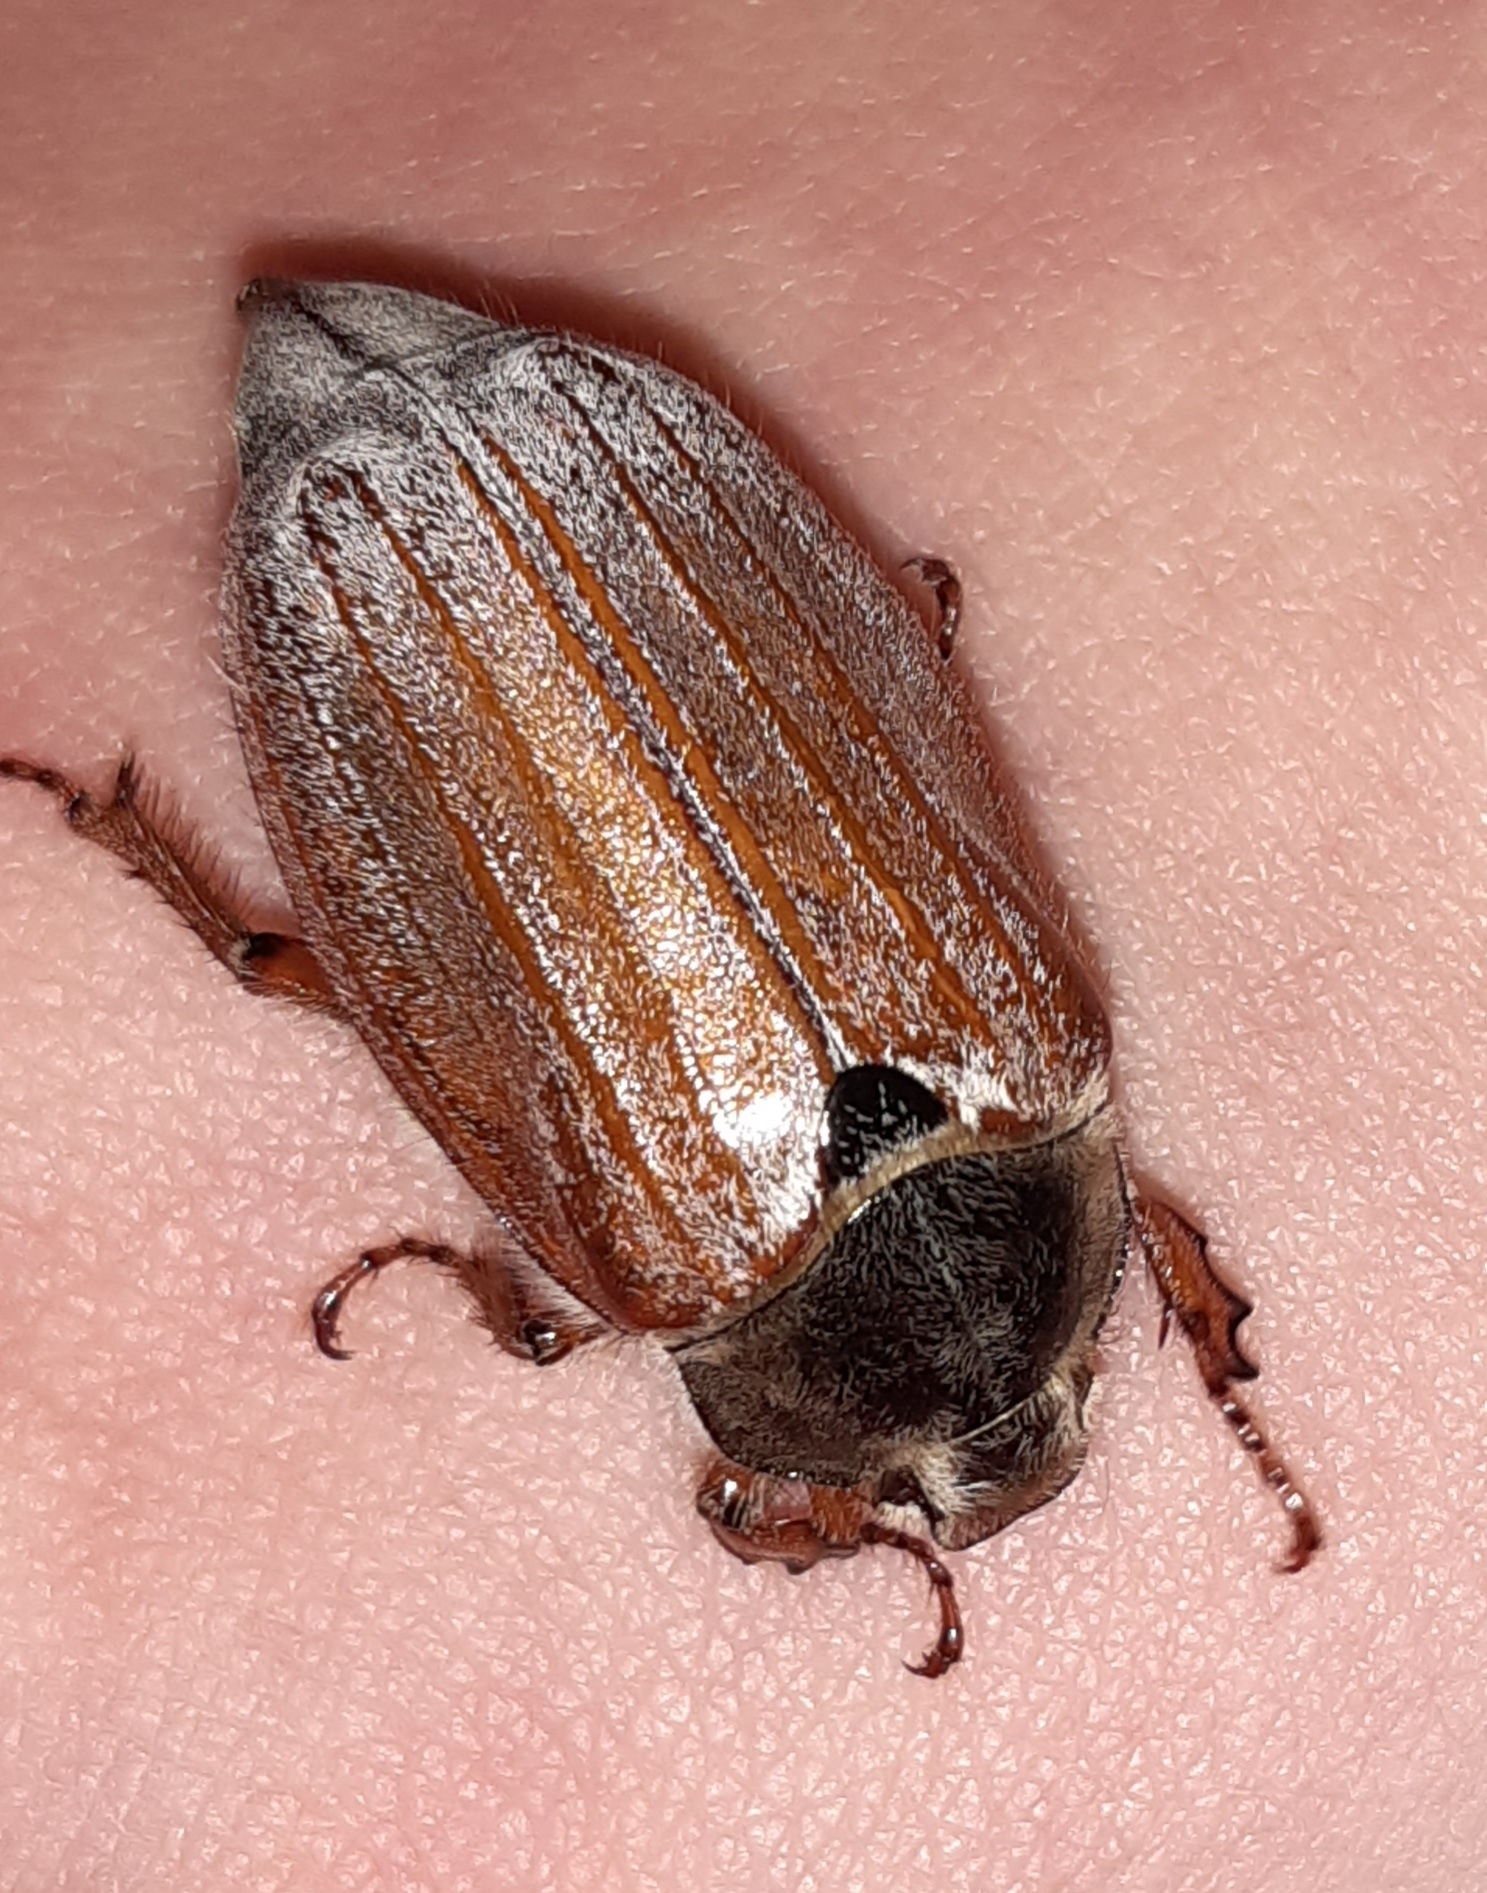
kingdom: Animalia
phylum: Arthropoda
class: Insecta
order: Coleoptera
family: Scarabaeidae
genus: Melolontha
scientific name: Melolontha melolontha
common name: Cockchafer maybeetle
